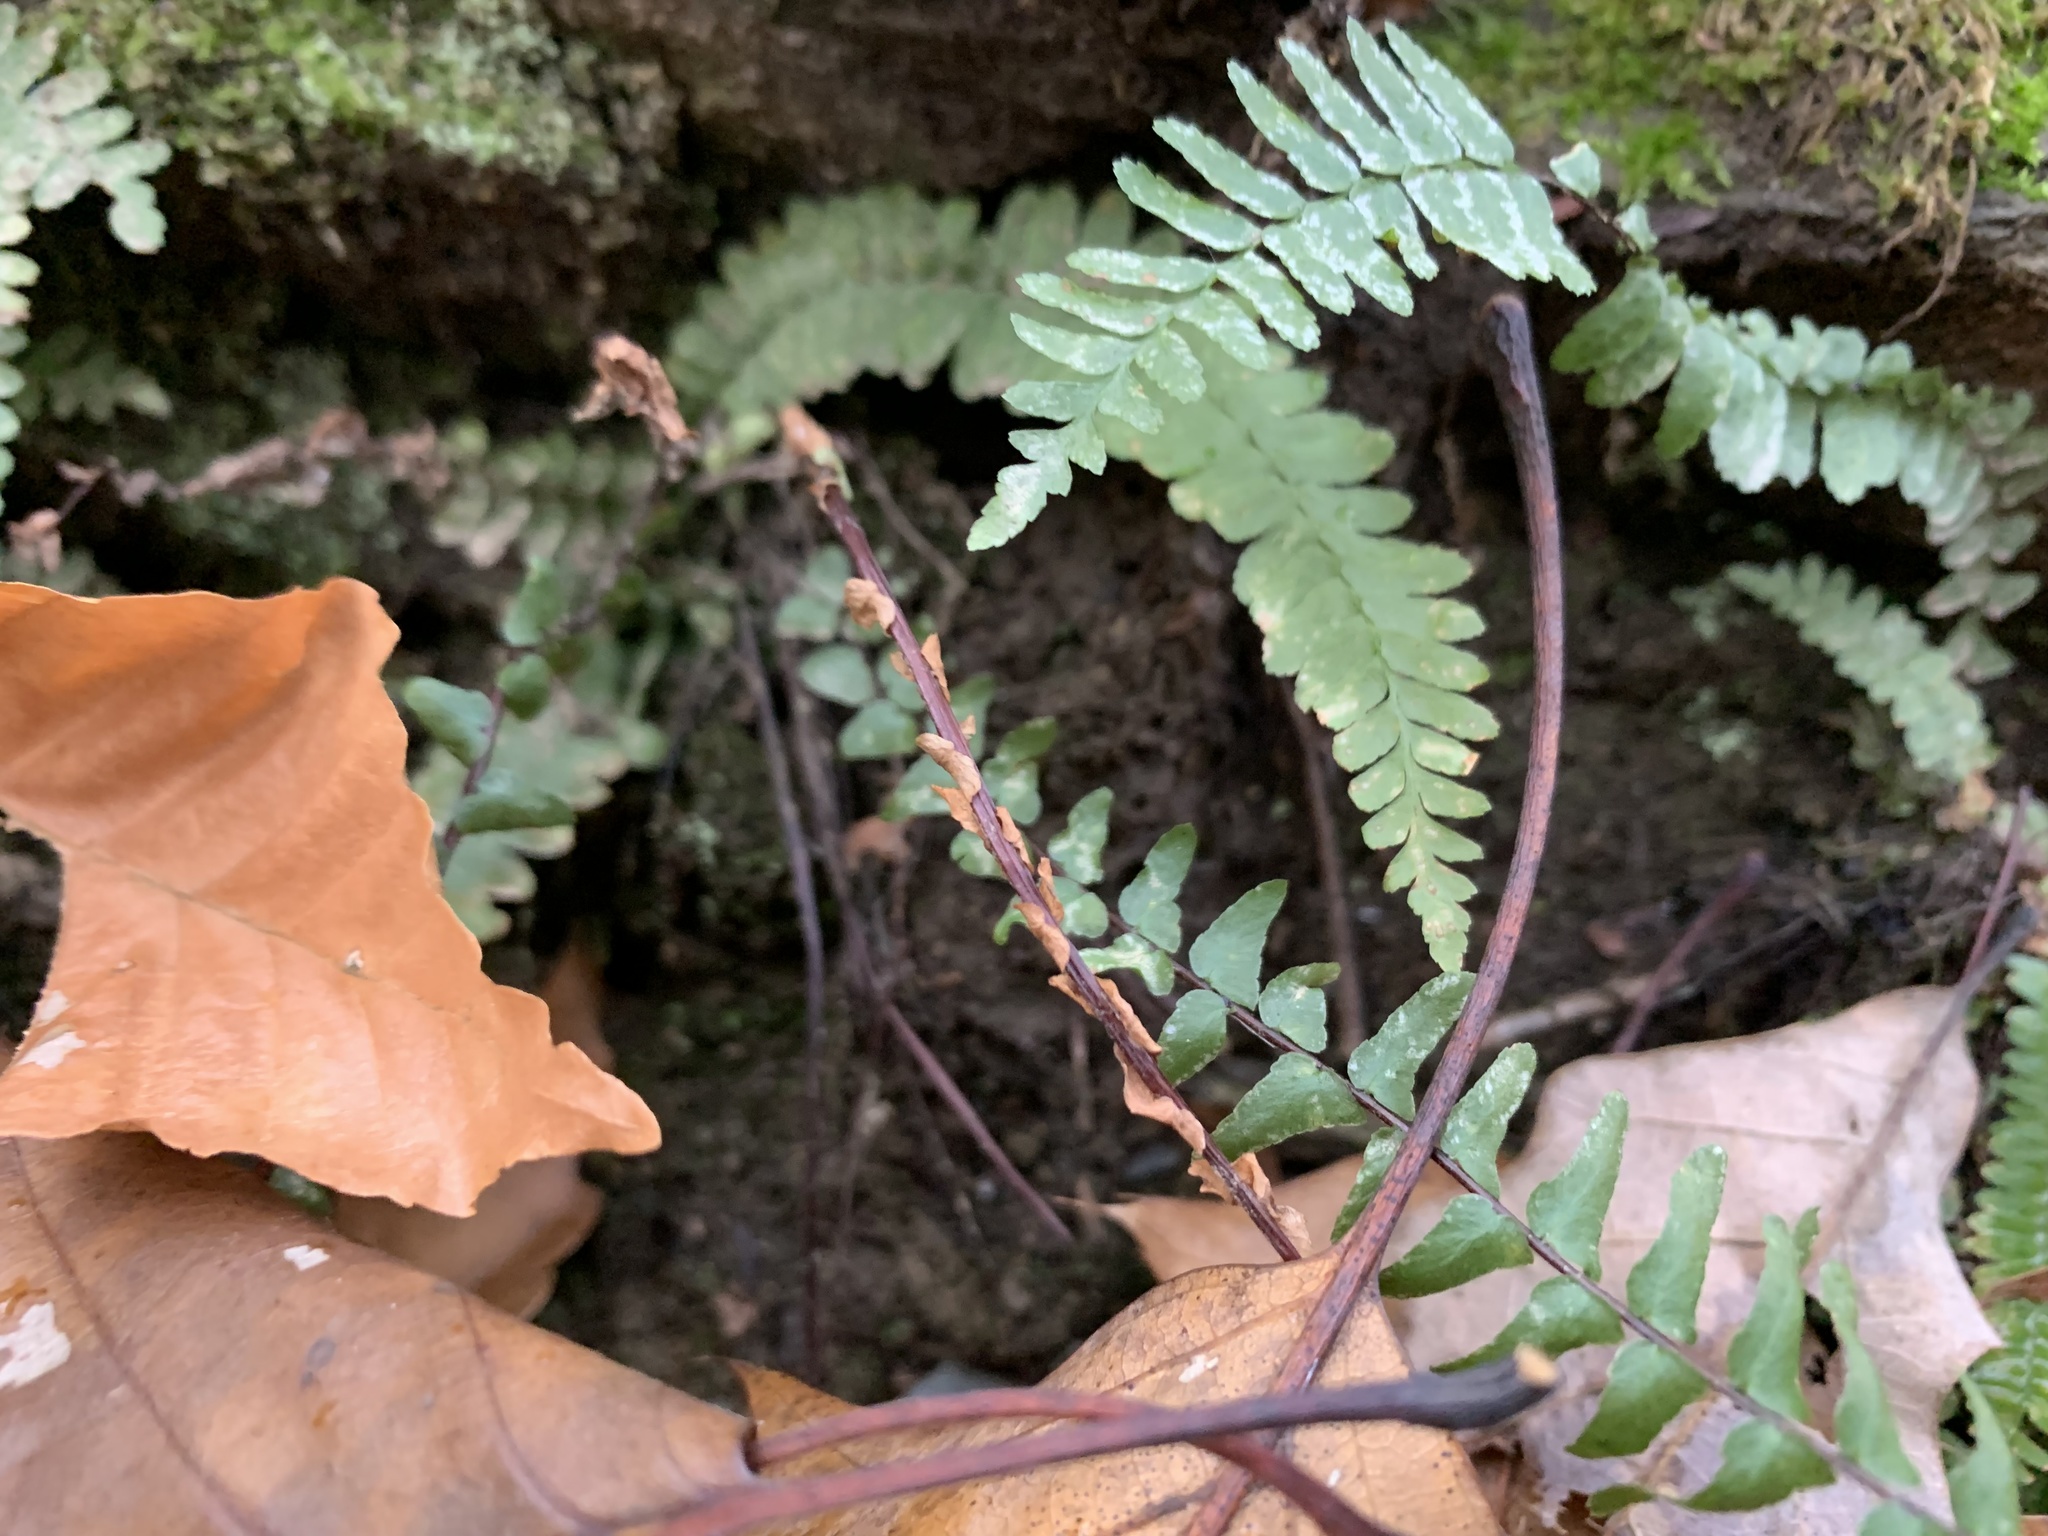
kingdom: Plantae
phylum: Tracheophyta
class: Polypodiopsida
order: Polypodiales
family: Aspleniaceae
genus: Asplenium
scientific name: Asplenium platyneuron
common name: Ebony spleenwort
